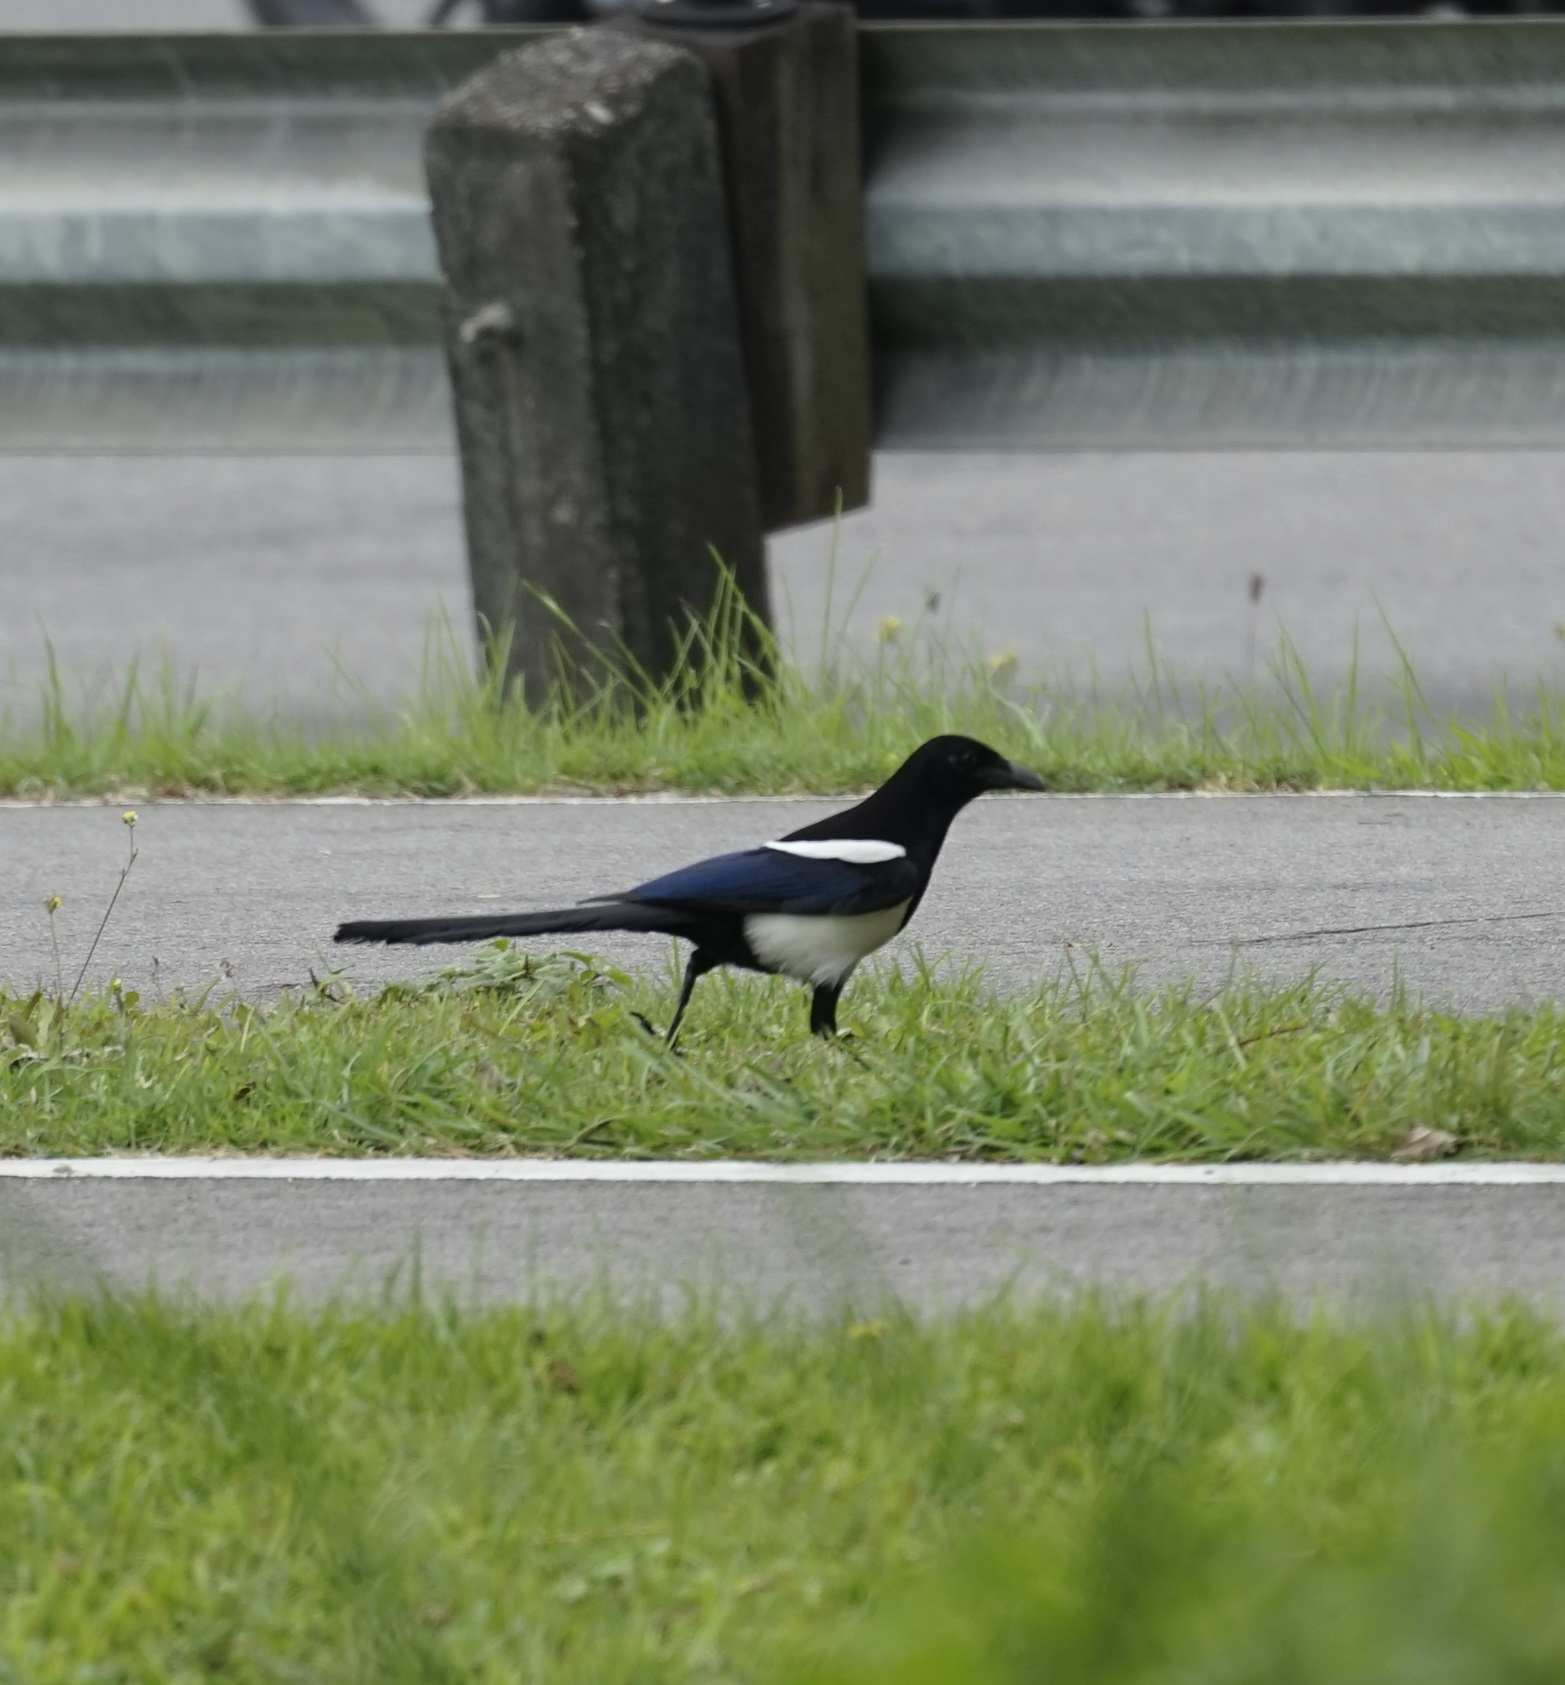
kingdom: Animalia
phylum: Chordata
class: Aves
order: Passeriformes
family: Corvidae
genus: Pica
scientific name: Pica serica
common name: Oriental magpie
